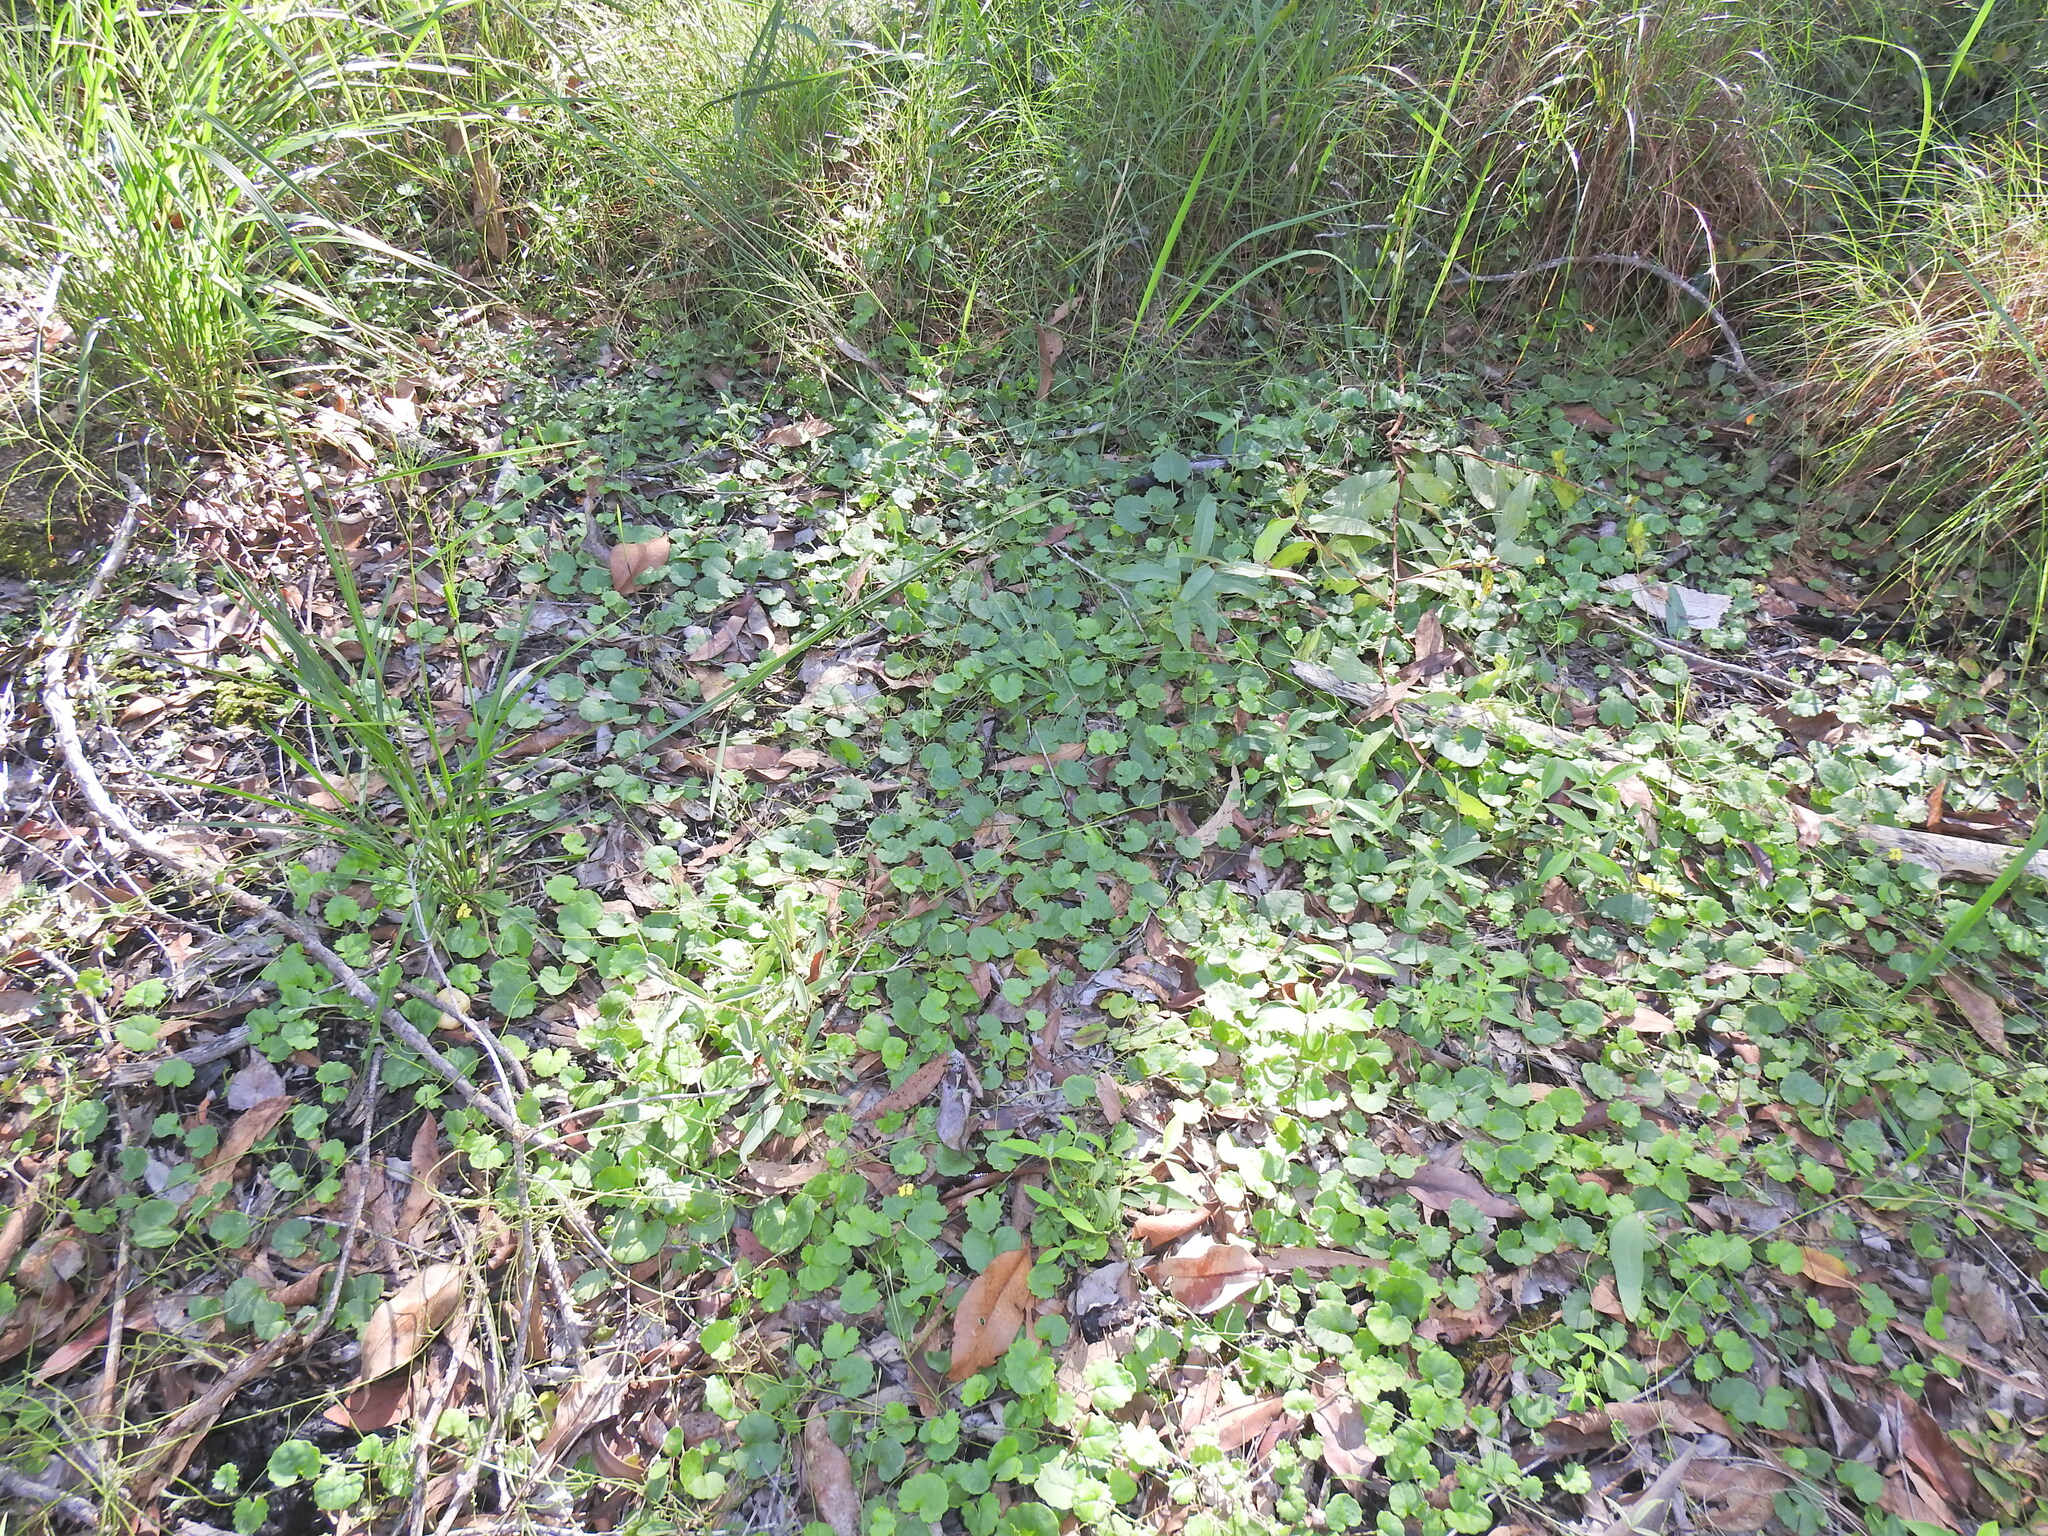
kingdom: Plantae
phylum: Tracheophyta
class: Magnoliopsida
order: Asterales
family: Goodeniaceae
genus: Goodenia
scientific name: Goodenia rotundifolia
